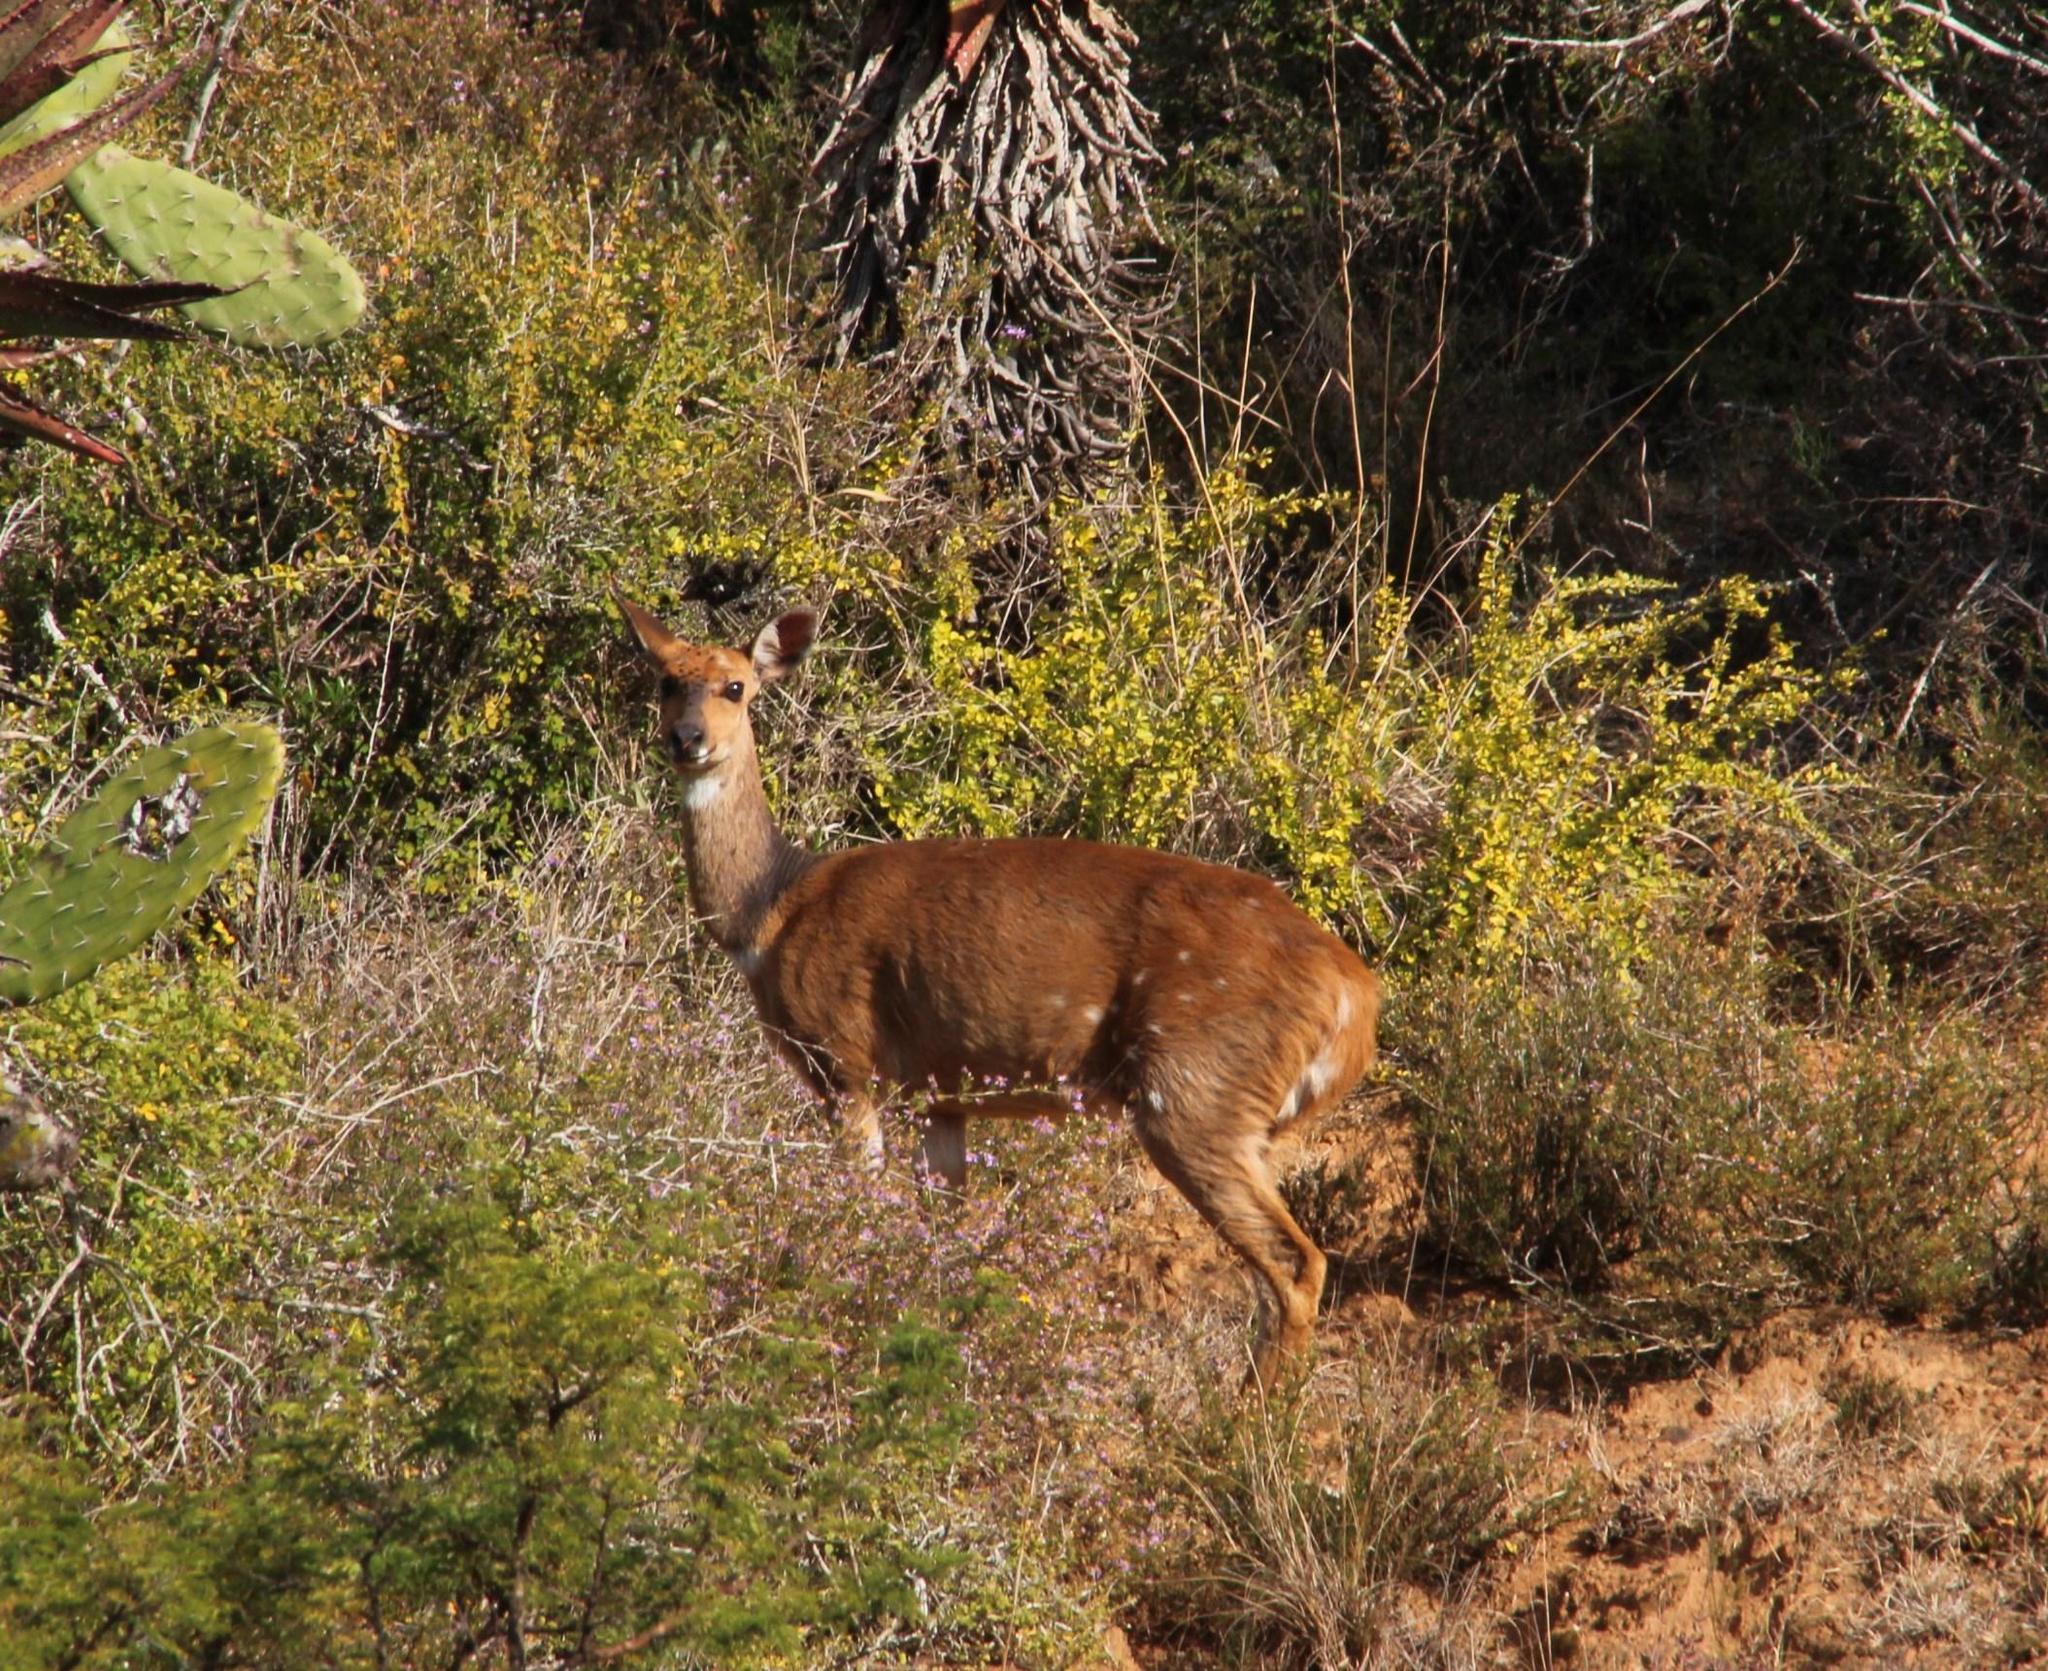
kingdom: Animalia
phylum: Chordata
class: Mammalia
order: Artiodactyla
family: Bovidae
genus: Tragelaphus
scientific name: Tragelaphus scriptus
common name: Bushbuck
